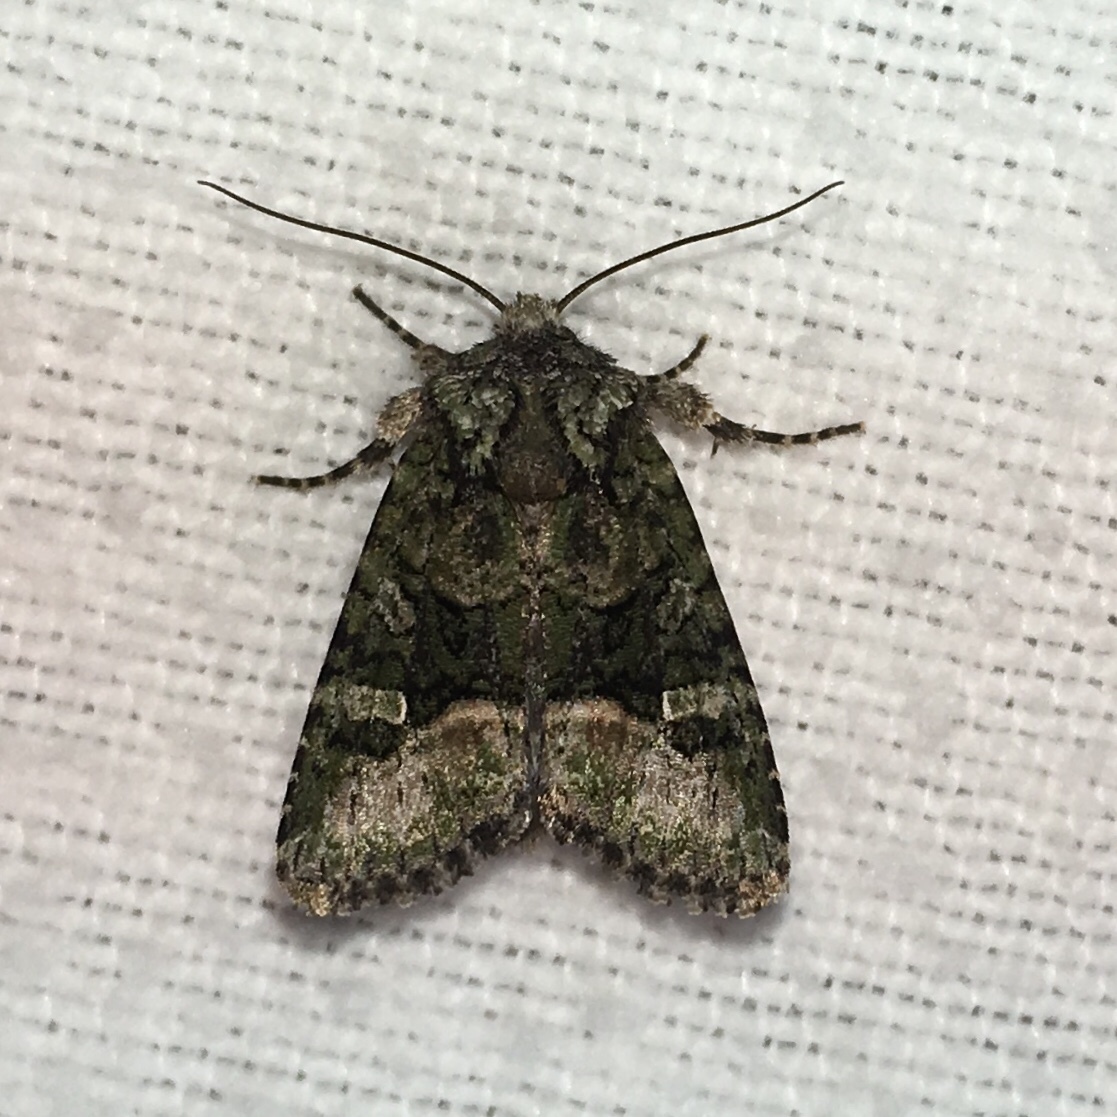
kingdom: Animalia
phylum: Arthropoda
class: Insecta
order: Lepidoptera
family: Noctuidae
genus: Lacinipolia
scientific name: Lacinipolia olivacea
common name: Olive arches moth
